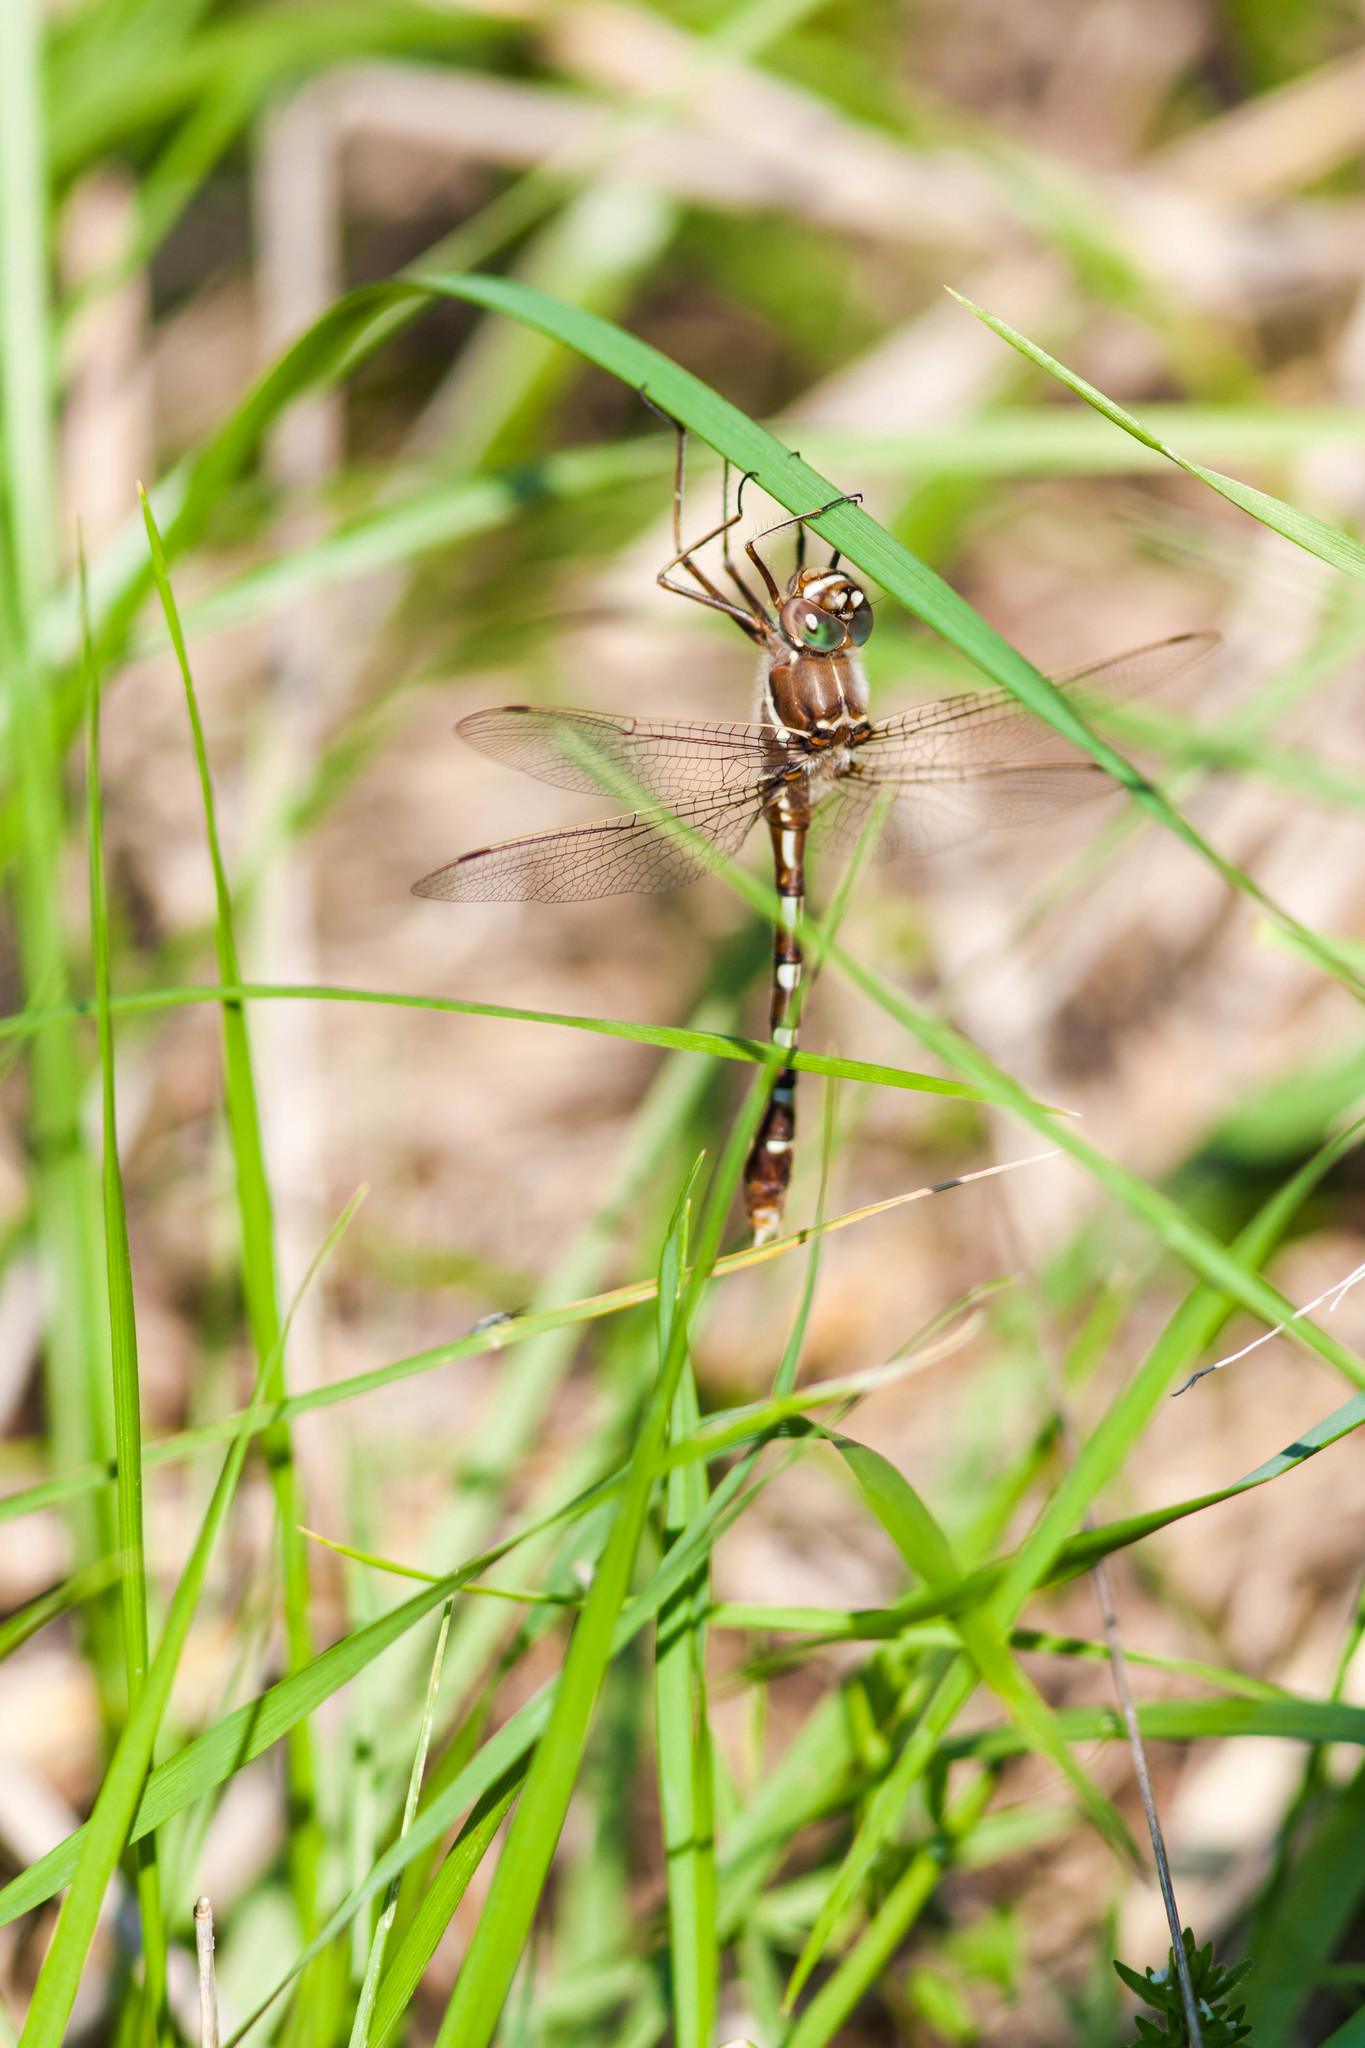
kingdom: Animalia
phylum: Arthropoda
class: Insecta
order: Odonata
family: Macromiidae
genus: Didymops
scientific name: Didymops transversa
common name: Stream cruiser
